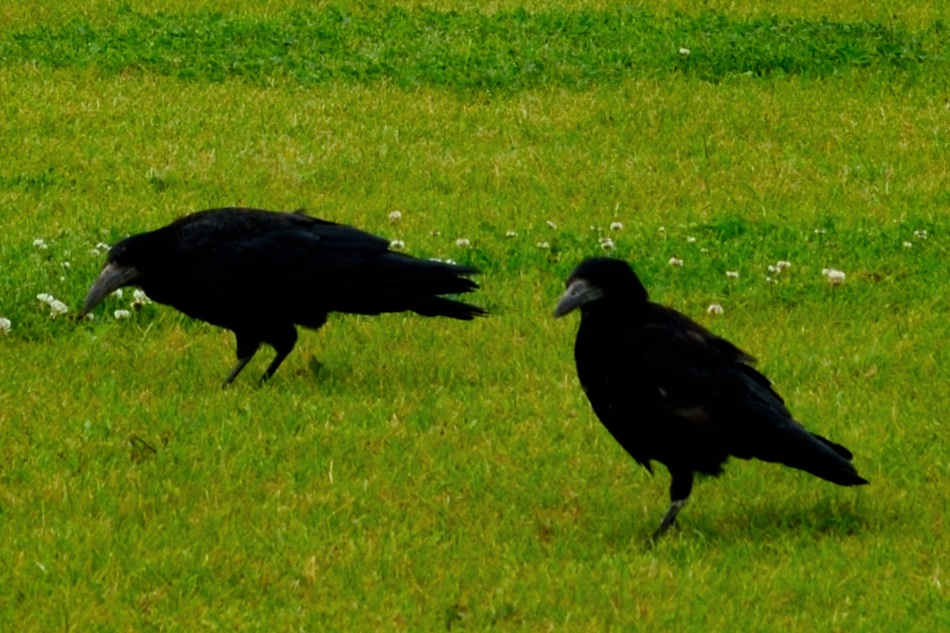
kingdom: Animalia
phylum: Chordata
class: Aves
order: Passeriformes
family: Corvidae
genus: Corvus
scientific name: Corvus frugilegus
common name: Rook
